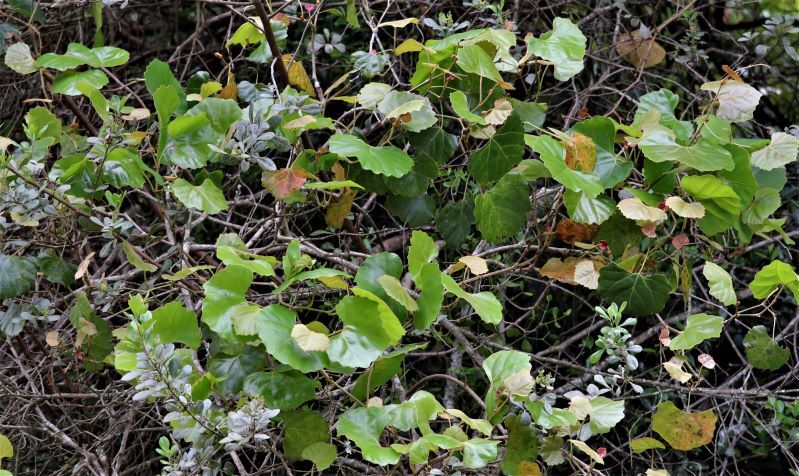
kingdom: Plantae
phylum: Tracheophyta
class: Magnoliopsida
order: Vitales
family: Vitaceae
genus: Rhoicissus
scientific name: Rhoicissus tomentosa
